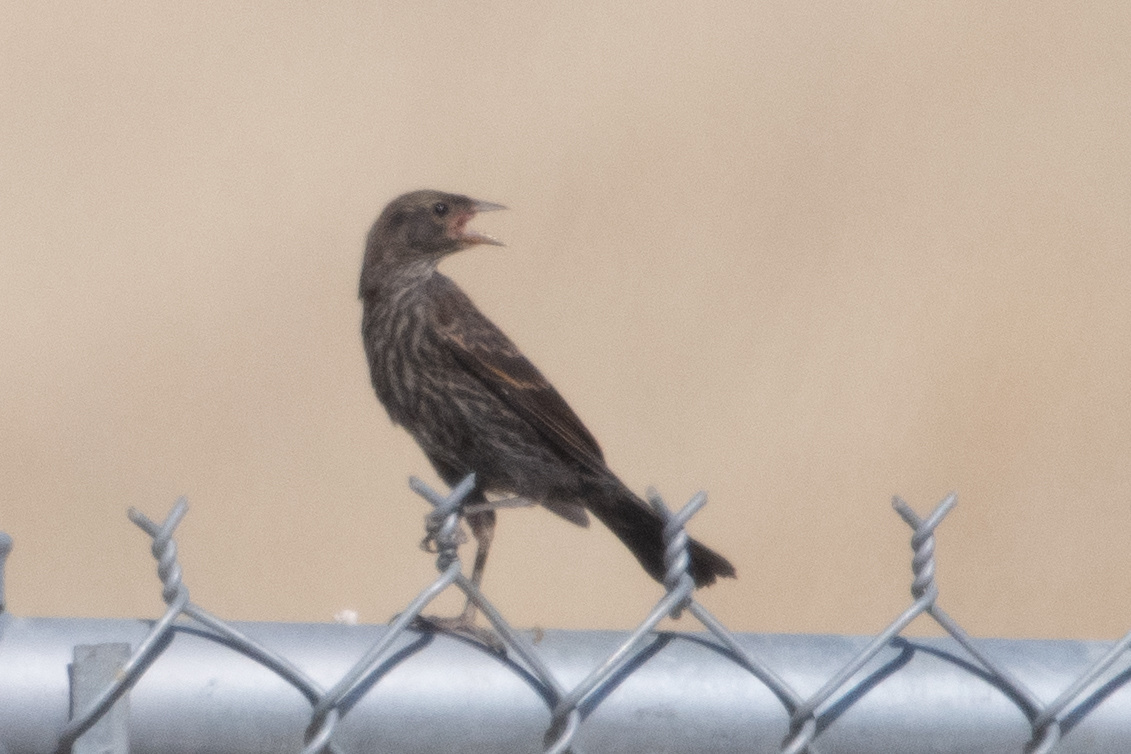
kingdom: Animalia
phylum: Chordata
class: Aves
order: Passeriformes
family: Icteridae
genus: Agelaius
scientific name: Agelaius phoeniceus
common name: Red-winged blackbird
